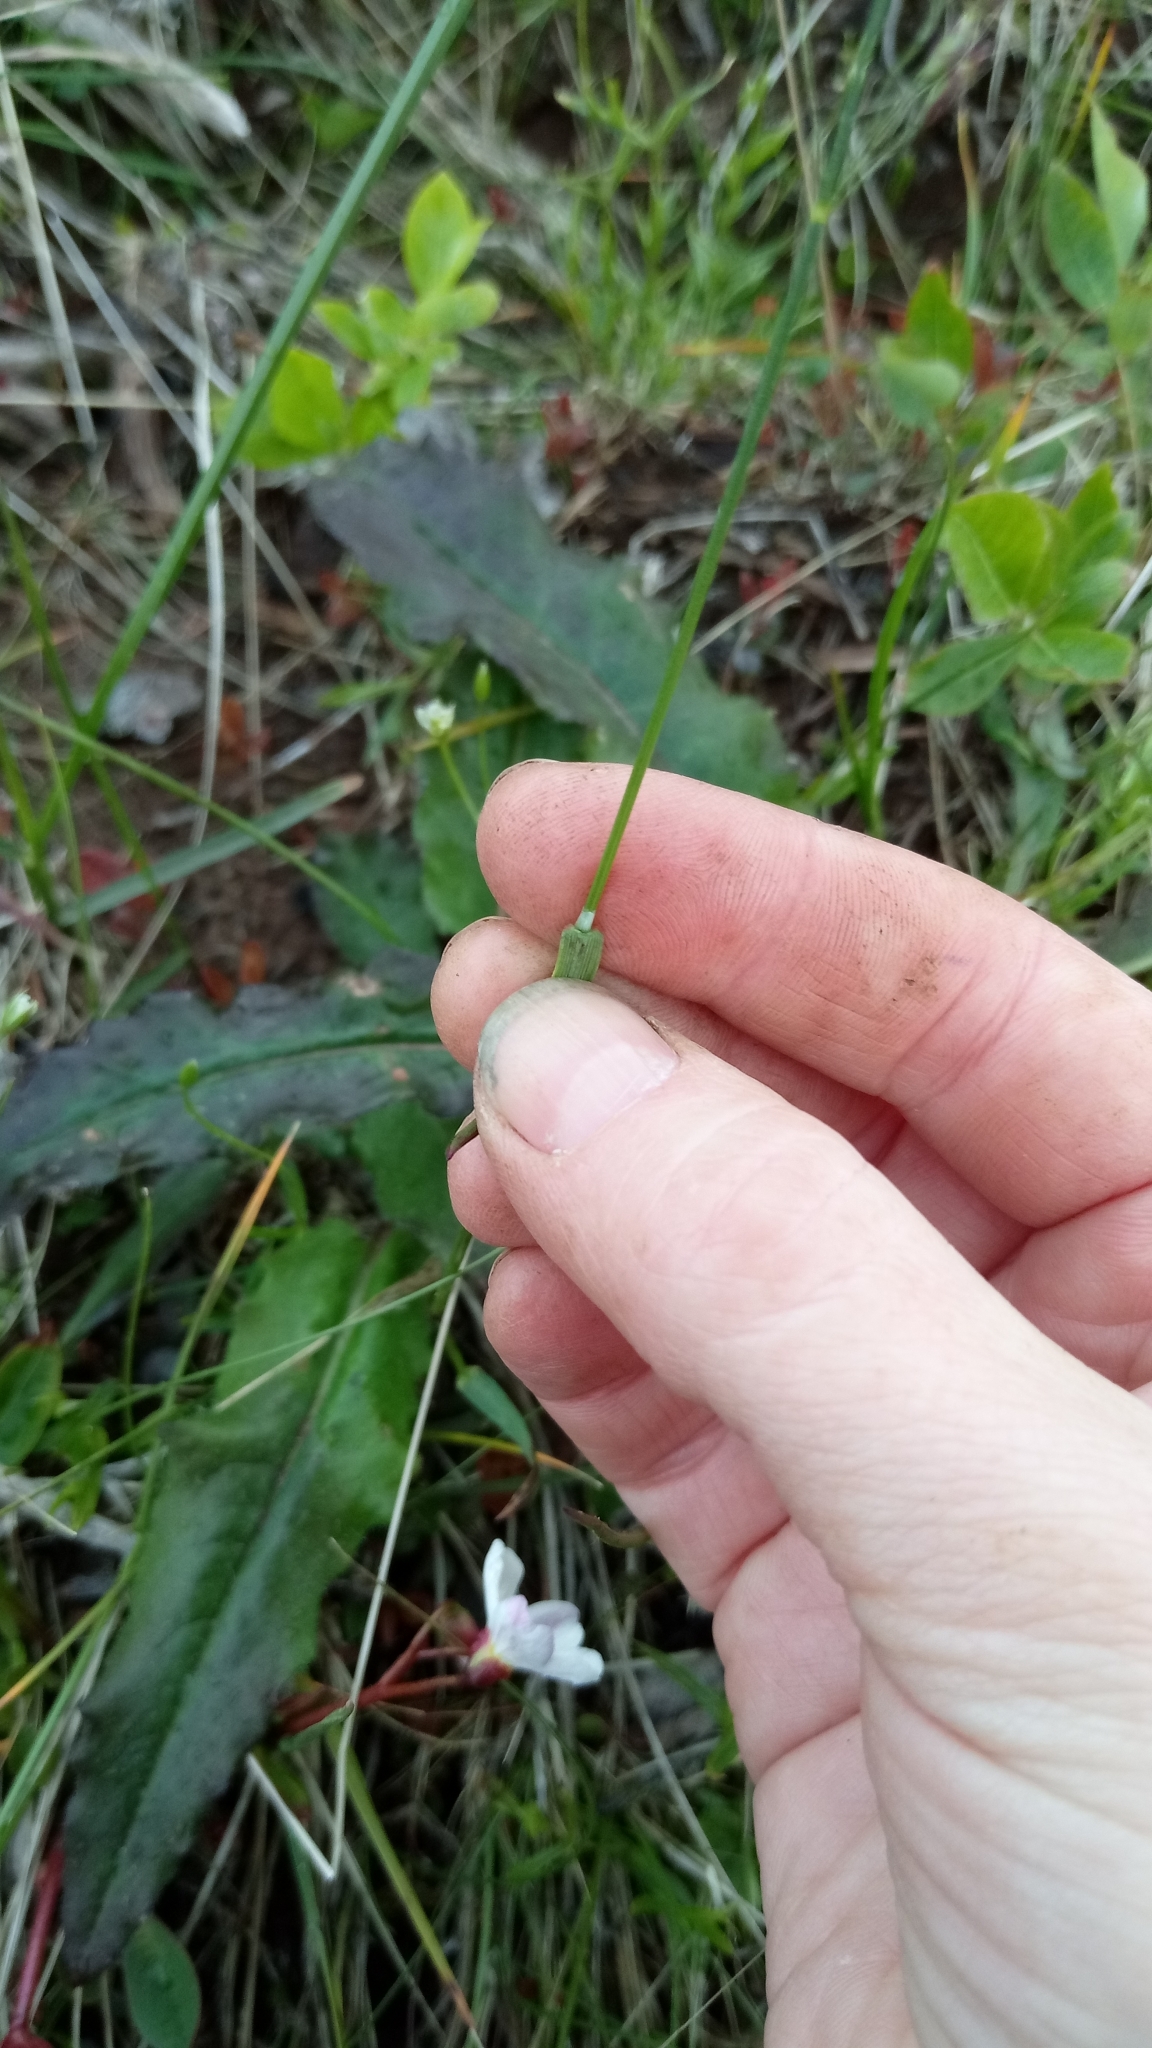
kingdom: Plantae
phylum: Tracheophyta
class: Liliopsida
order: Poales
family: Poaceae
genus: Poa
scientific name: Poa pratensis
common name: Kentucky bluegrass
